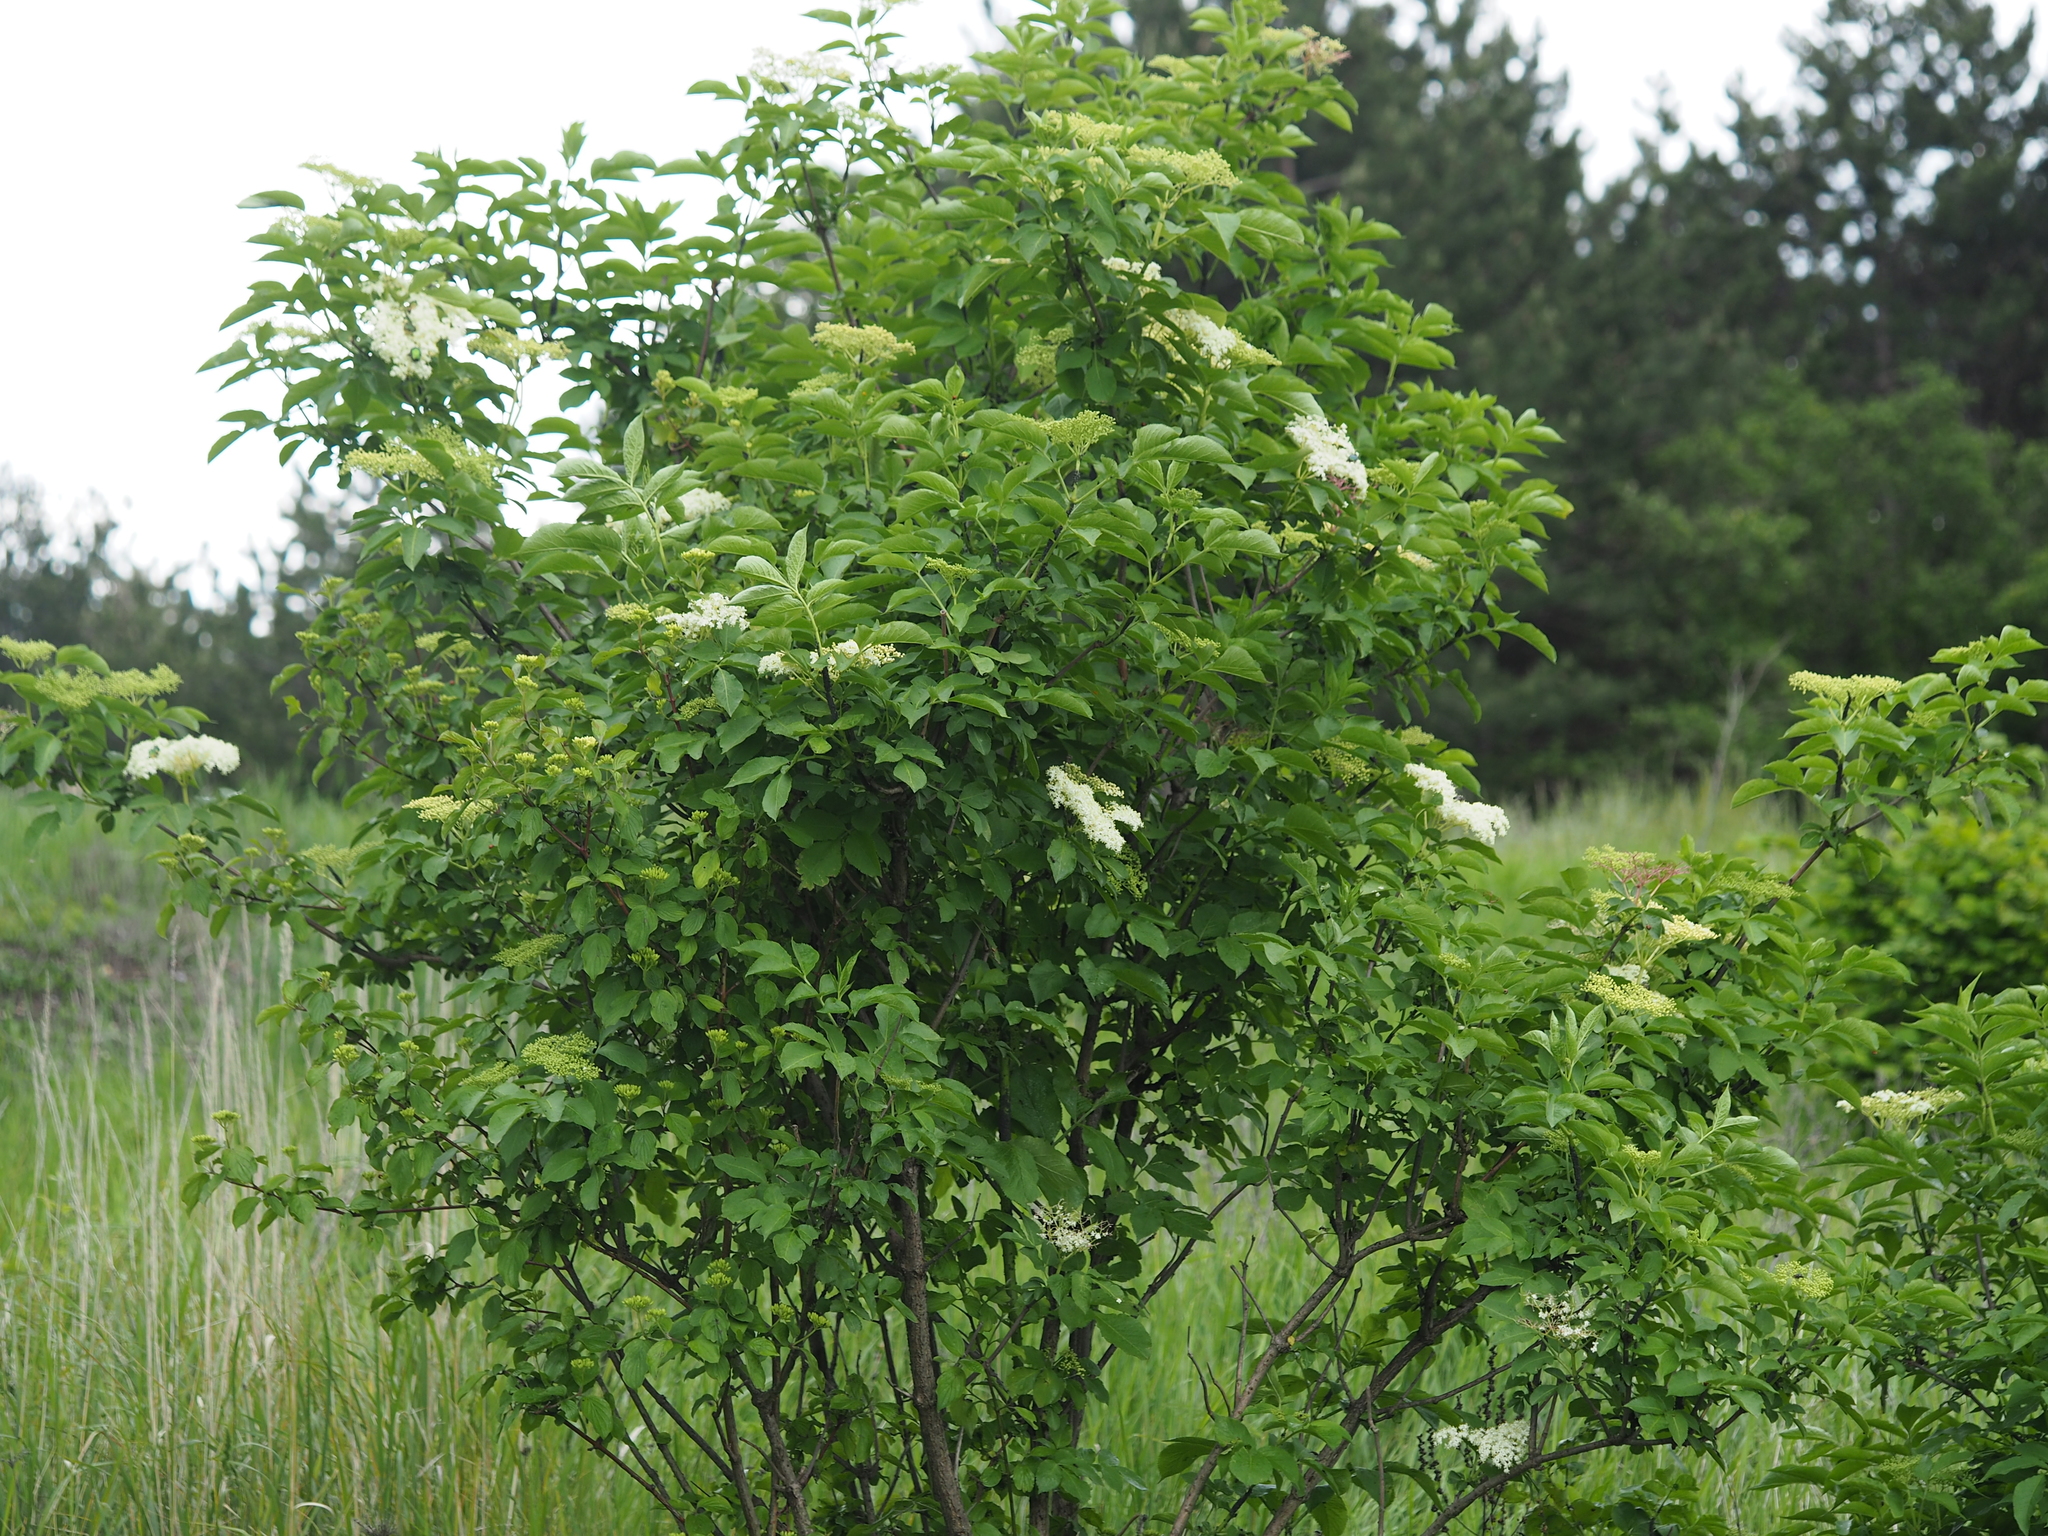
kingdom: Plantae
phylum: Tracheophyta
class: Magnoliopsida
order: Dipsacales
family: Viburnaceae
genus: Sambucus
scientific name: Sambucus nigra
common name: Elder
